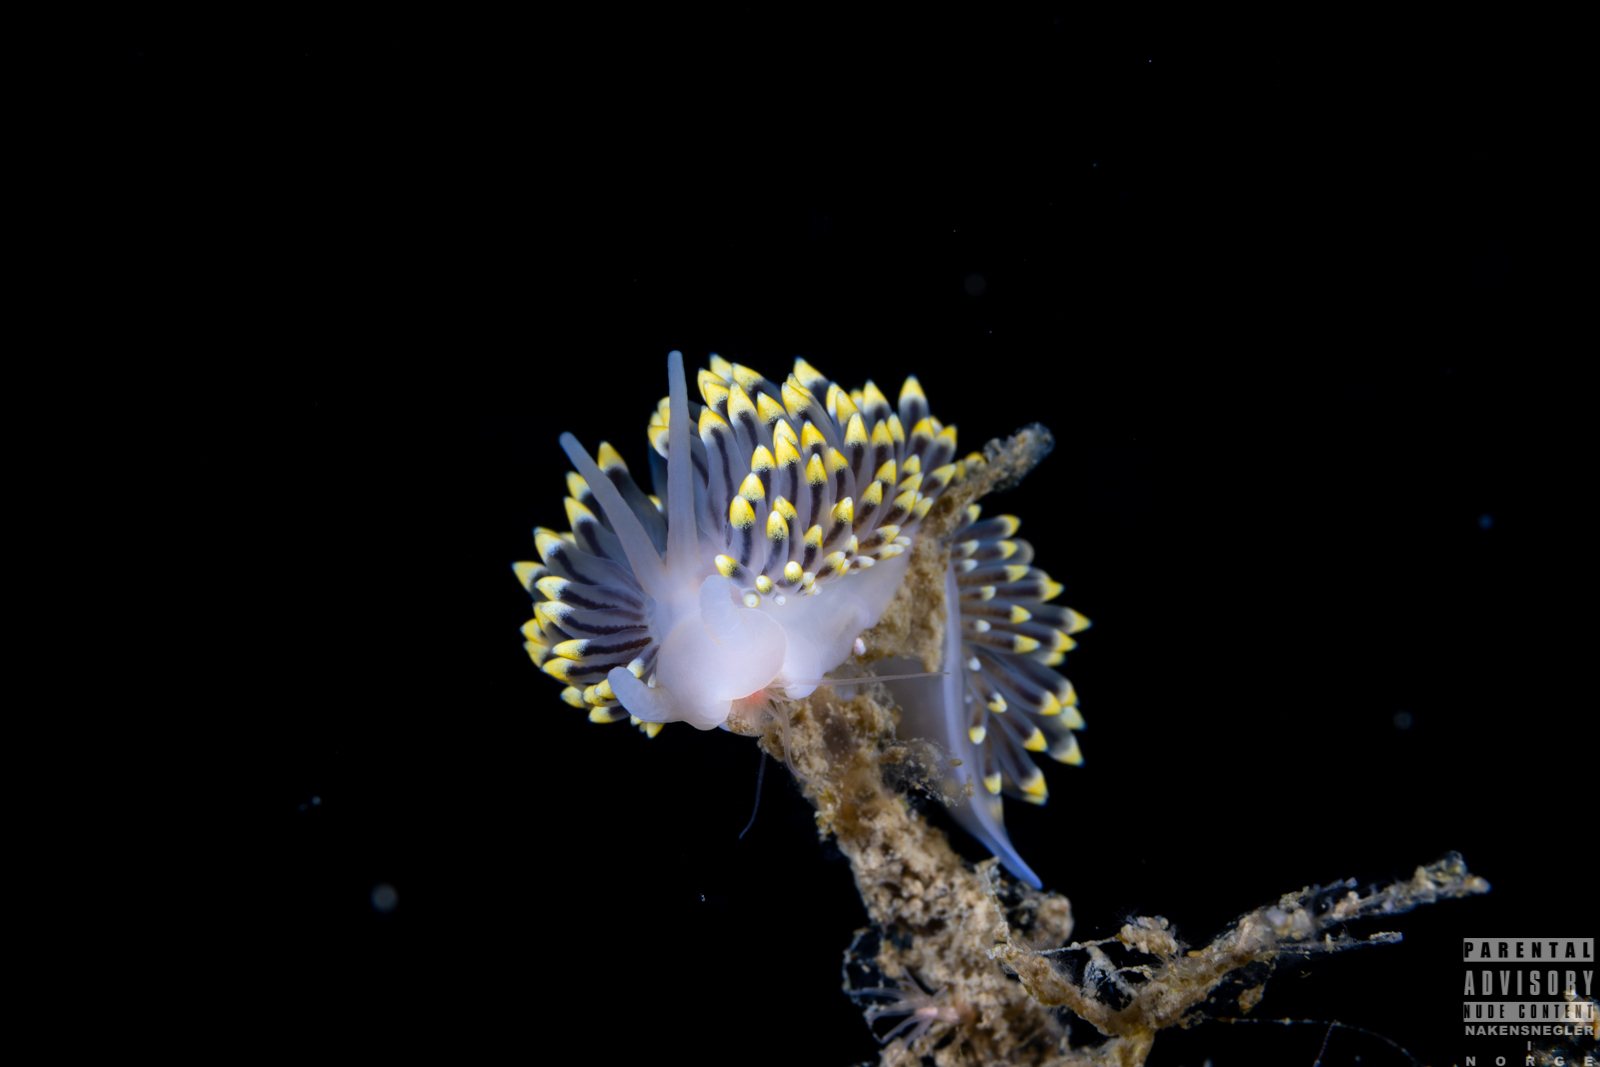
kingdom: Animalia
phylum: Mollusca
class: Gastropoda
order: Nudibranchia
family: Eubranchidae
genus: Eubranchus
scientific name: Eubranchus tricolor
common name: Painted balloon aeolis
